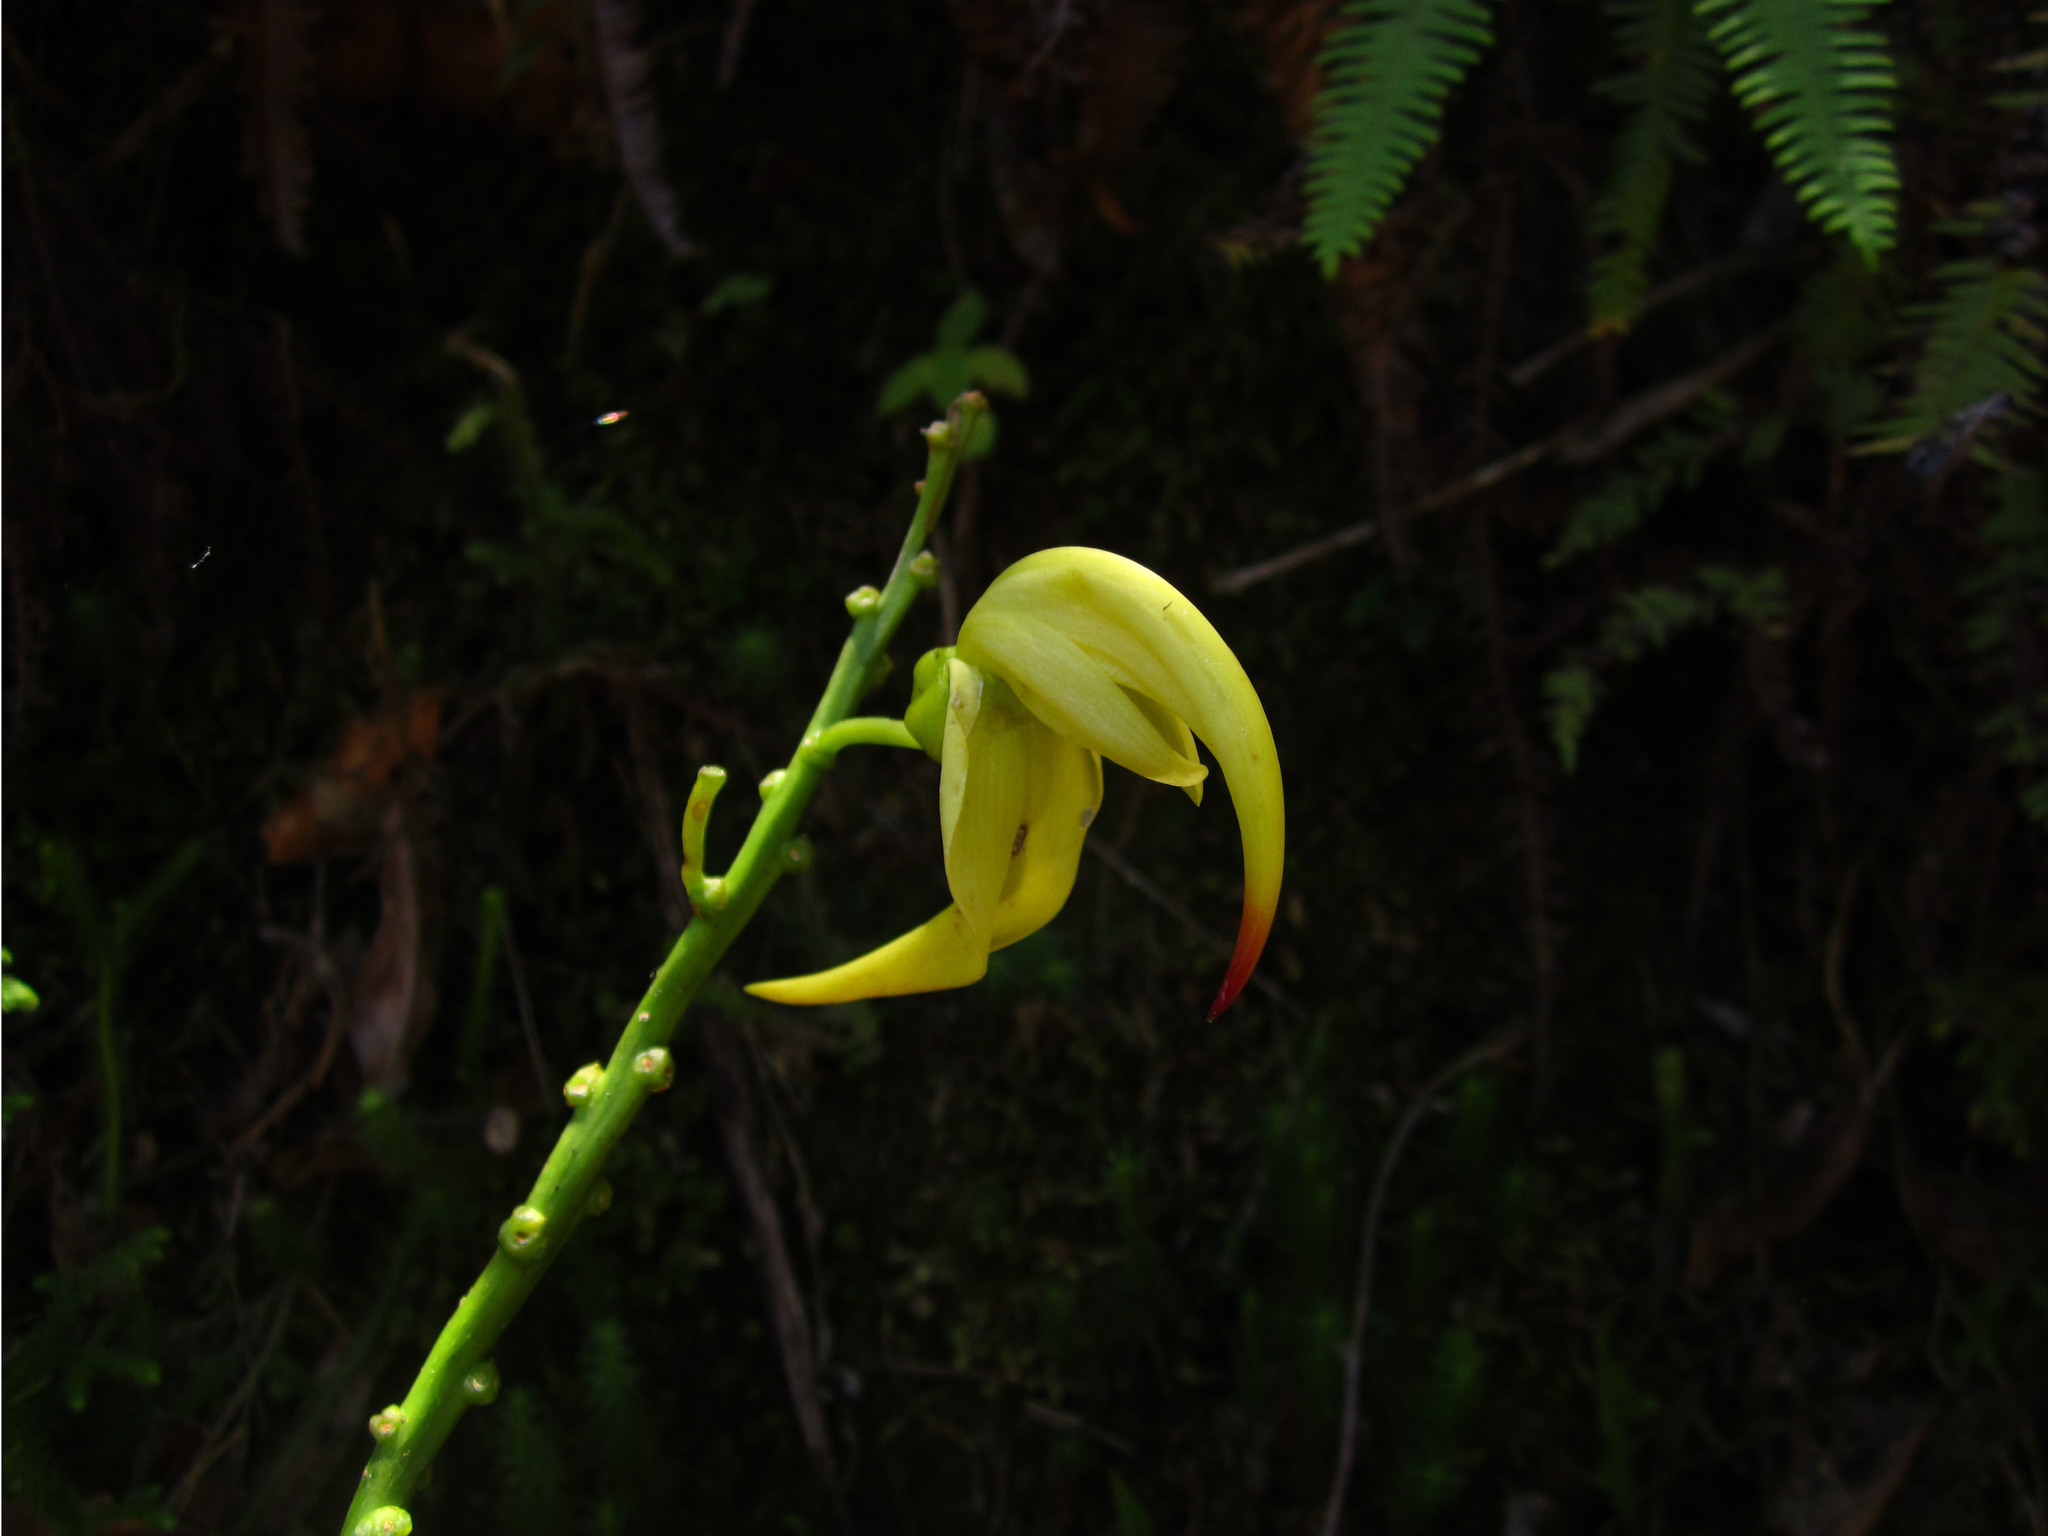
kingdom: Plantae
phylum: Tracheophyta
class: Magnoliopsida
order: Fabales
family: Fabaceae
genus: Strongylodon
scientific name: Strongylodon craveniae
